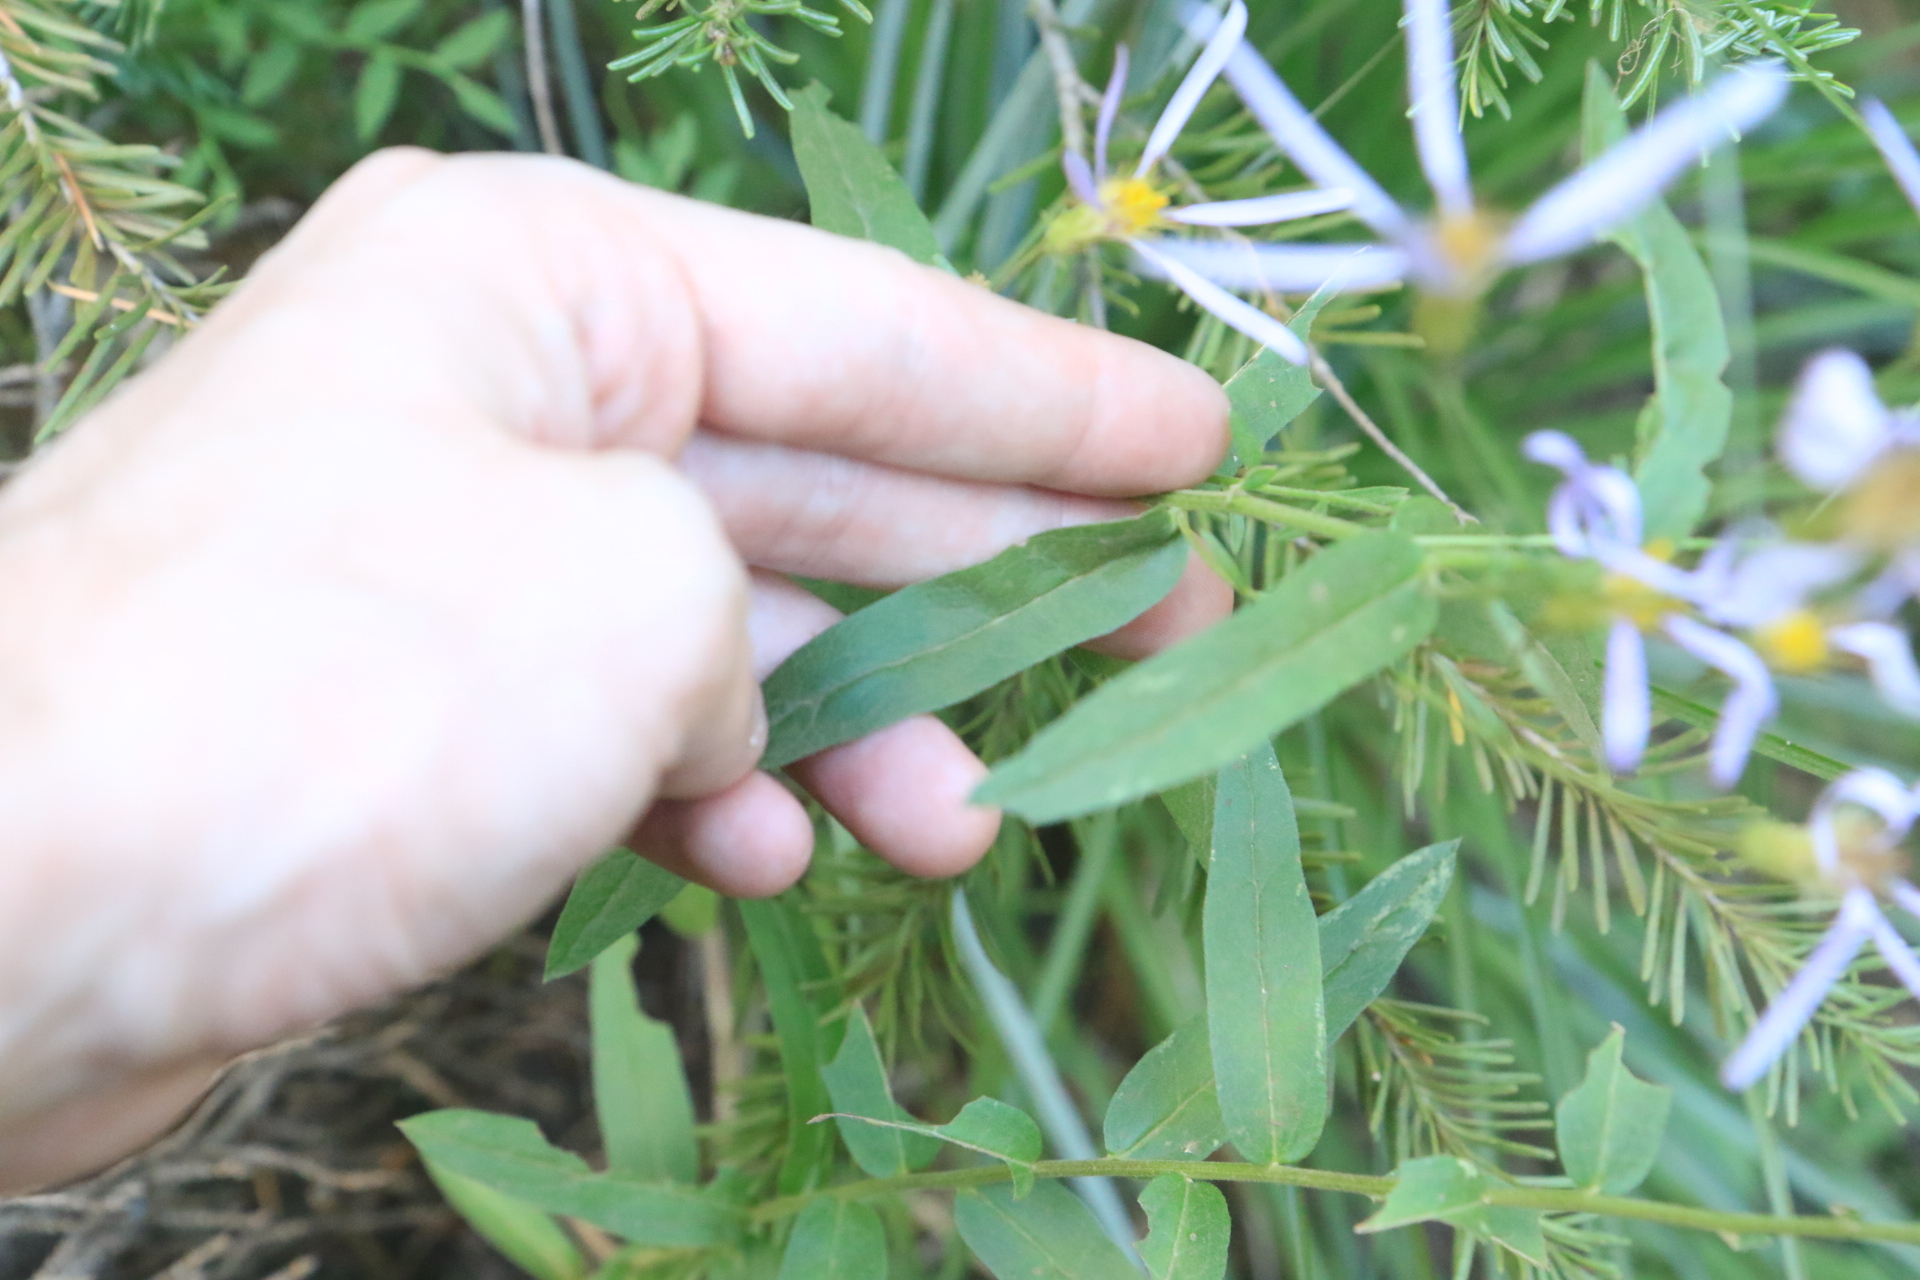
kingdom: Plantae
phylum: Tracheophyta
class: Magnoliopsida
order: Asterales
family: Asteraceae
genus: Eucephalus
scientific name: Eucephalus ledophyllus
